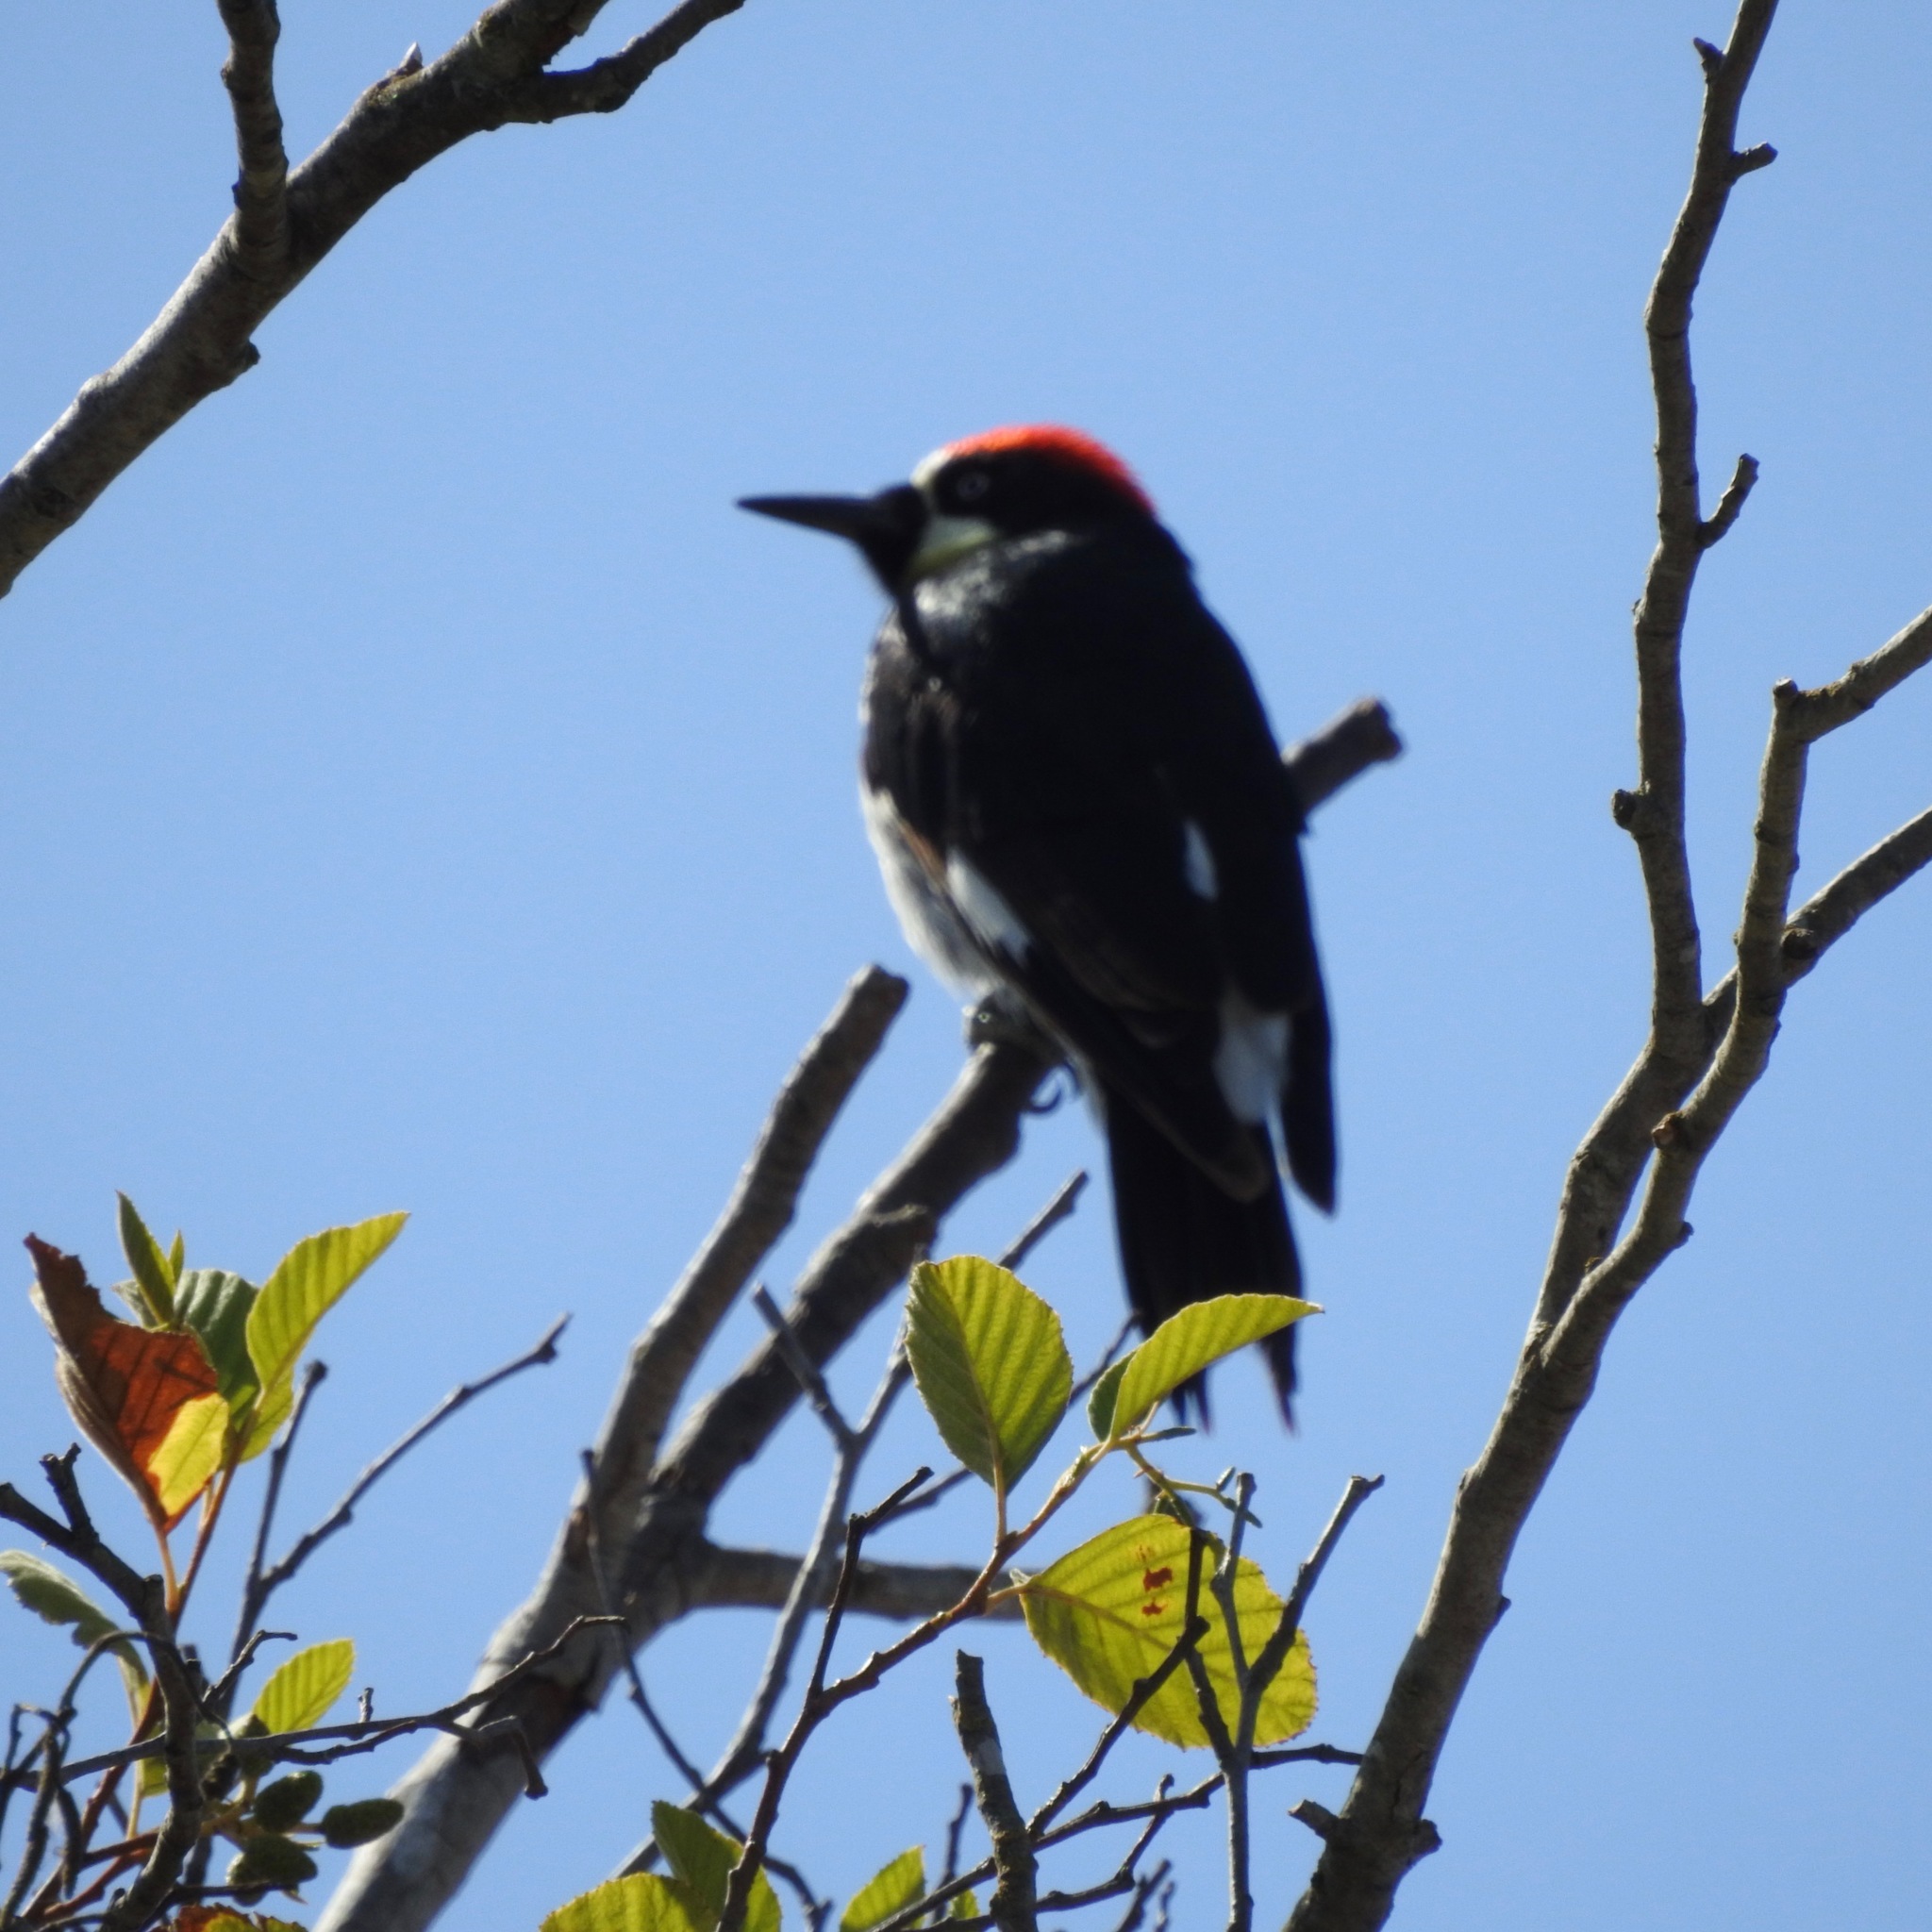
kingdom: Animalia
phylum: Chordata
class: Aves
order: Piciformes
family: Picidae
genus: Melanerpes
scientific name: Melanerpes formicivorus
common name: Acorn woodpecker
